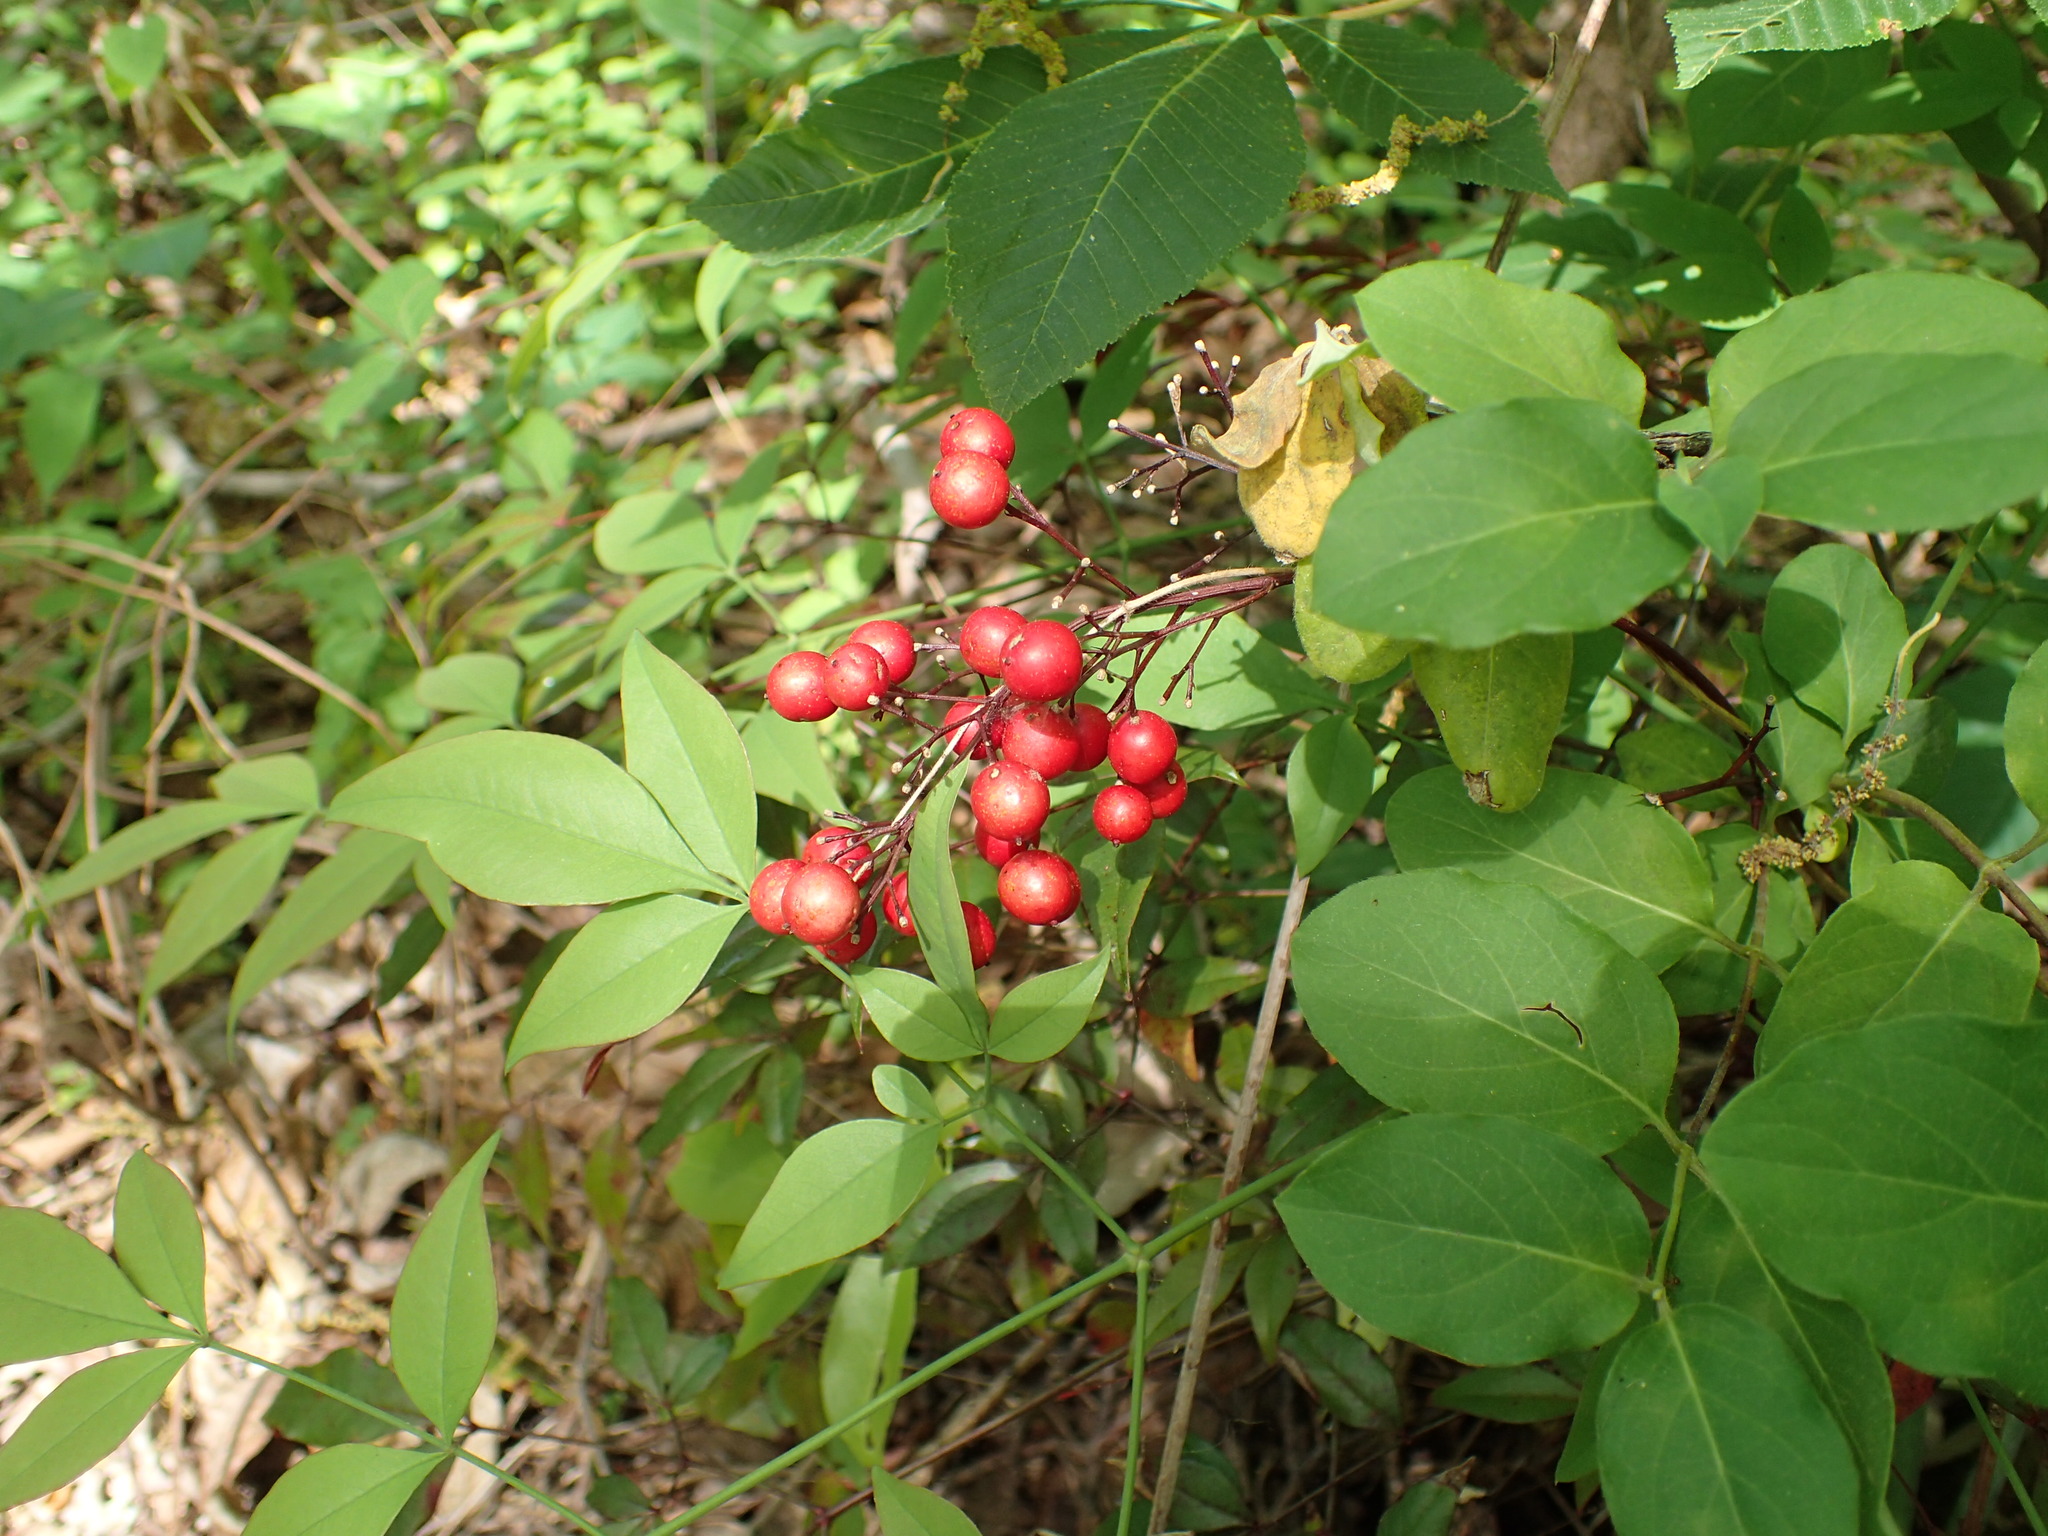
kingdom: Plantae
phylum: Tracheophyta
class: Magnoliopsida
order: Ranunculales
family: Berberidaceae
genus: Nandina
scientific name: Nandina domestica
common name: Sacred bamboo
